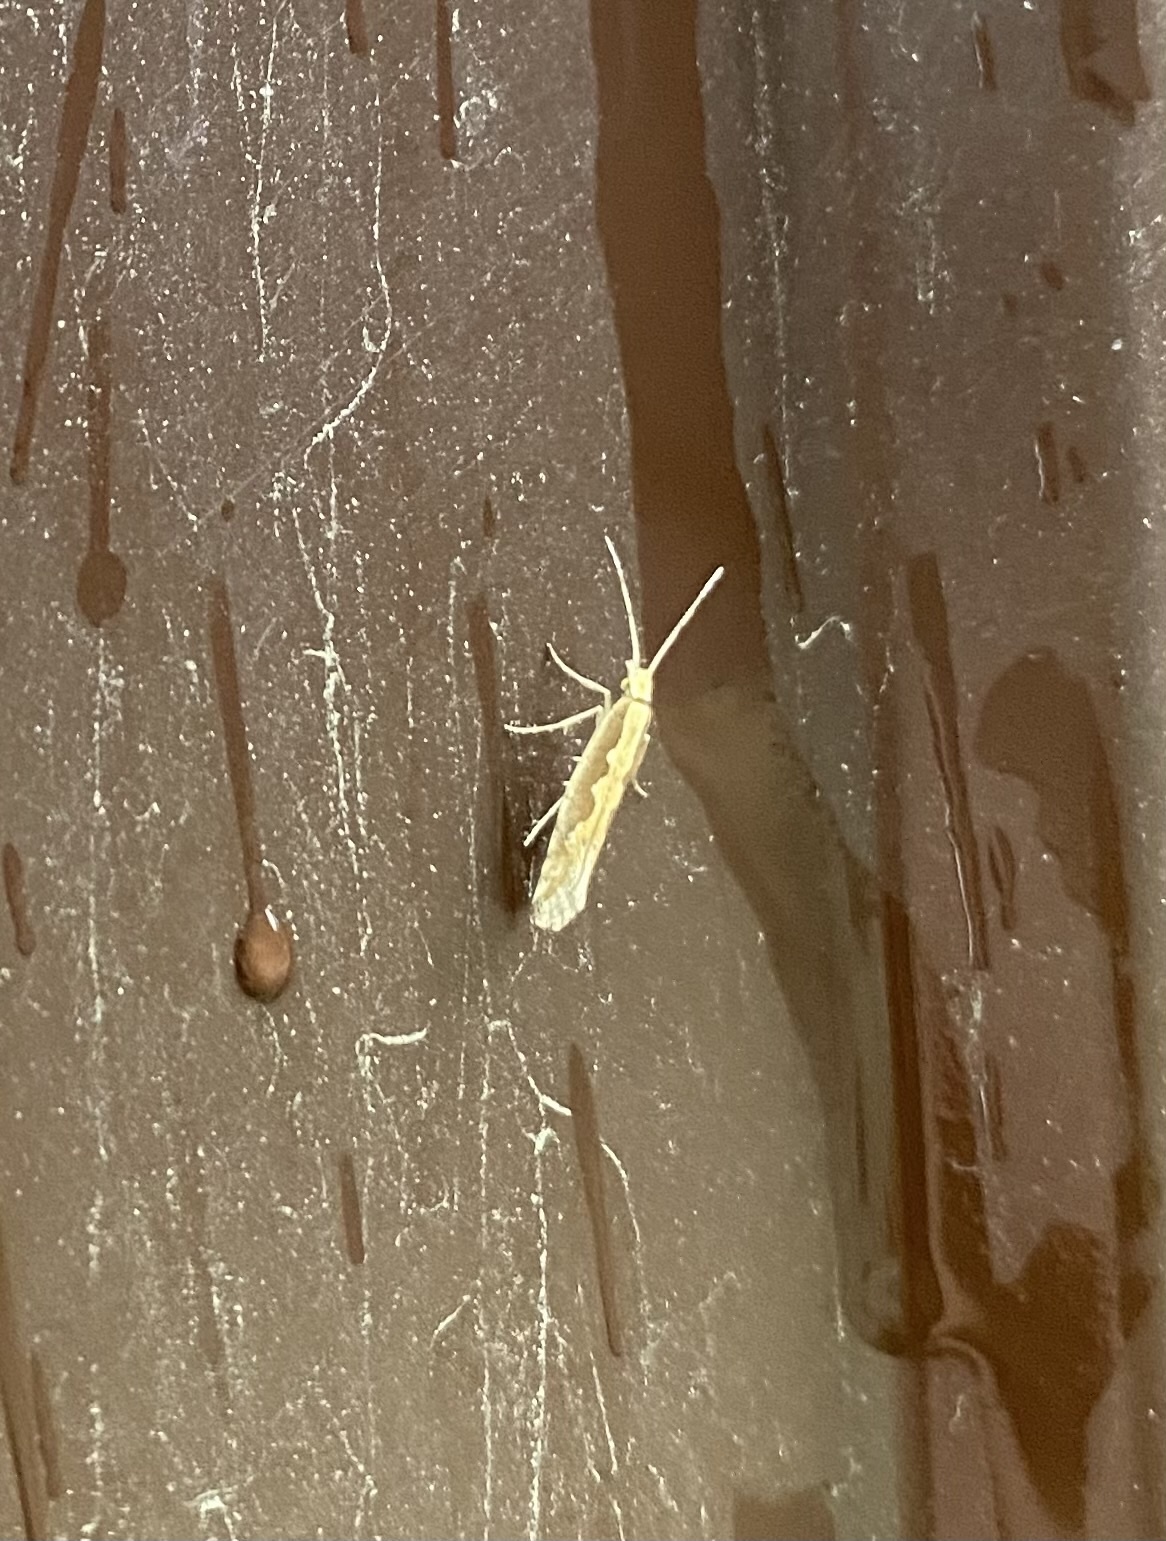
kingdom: Animalia
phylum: Arthropoda
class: Insecta
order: Lepidoptera
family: Plutellidae
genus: Plutella
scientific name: Plutella xylostella
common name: Diamond-back moth
